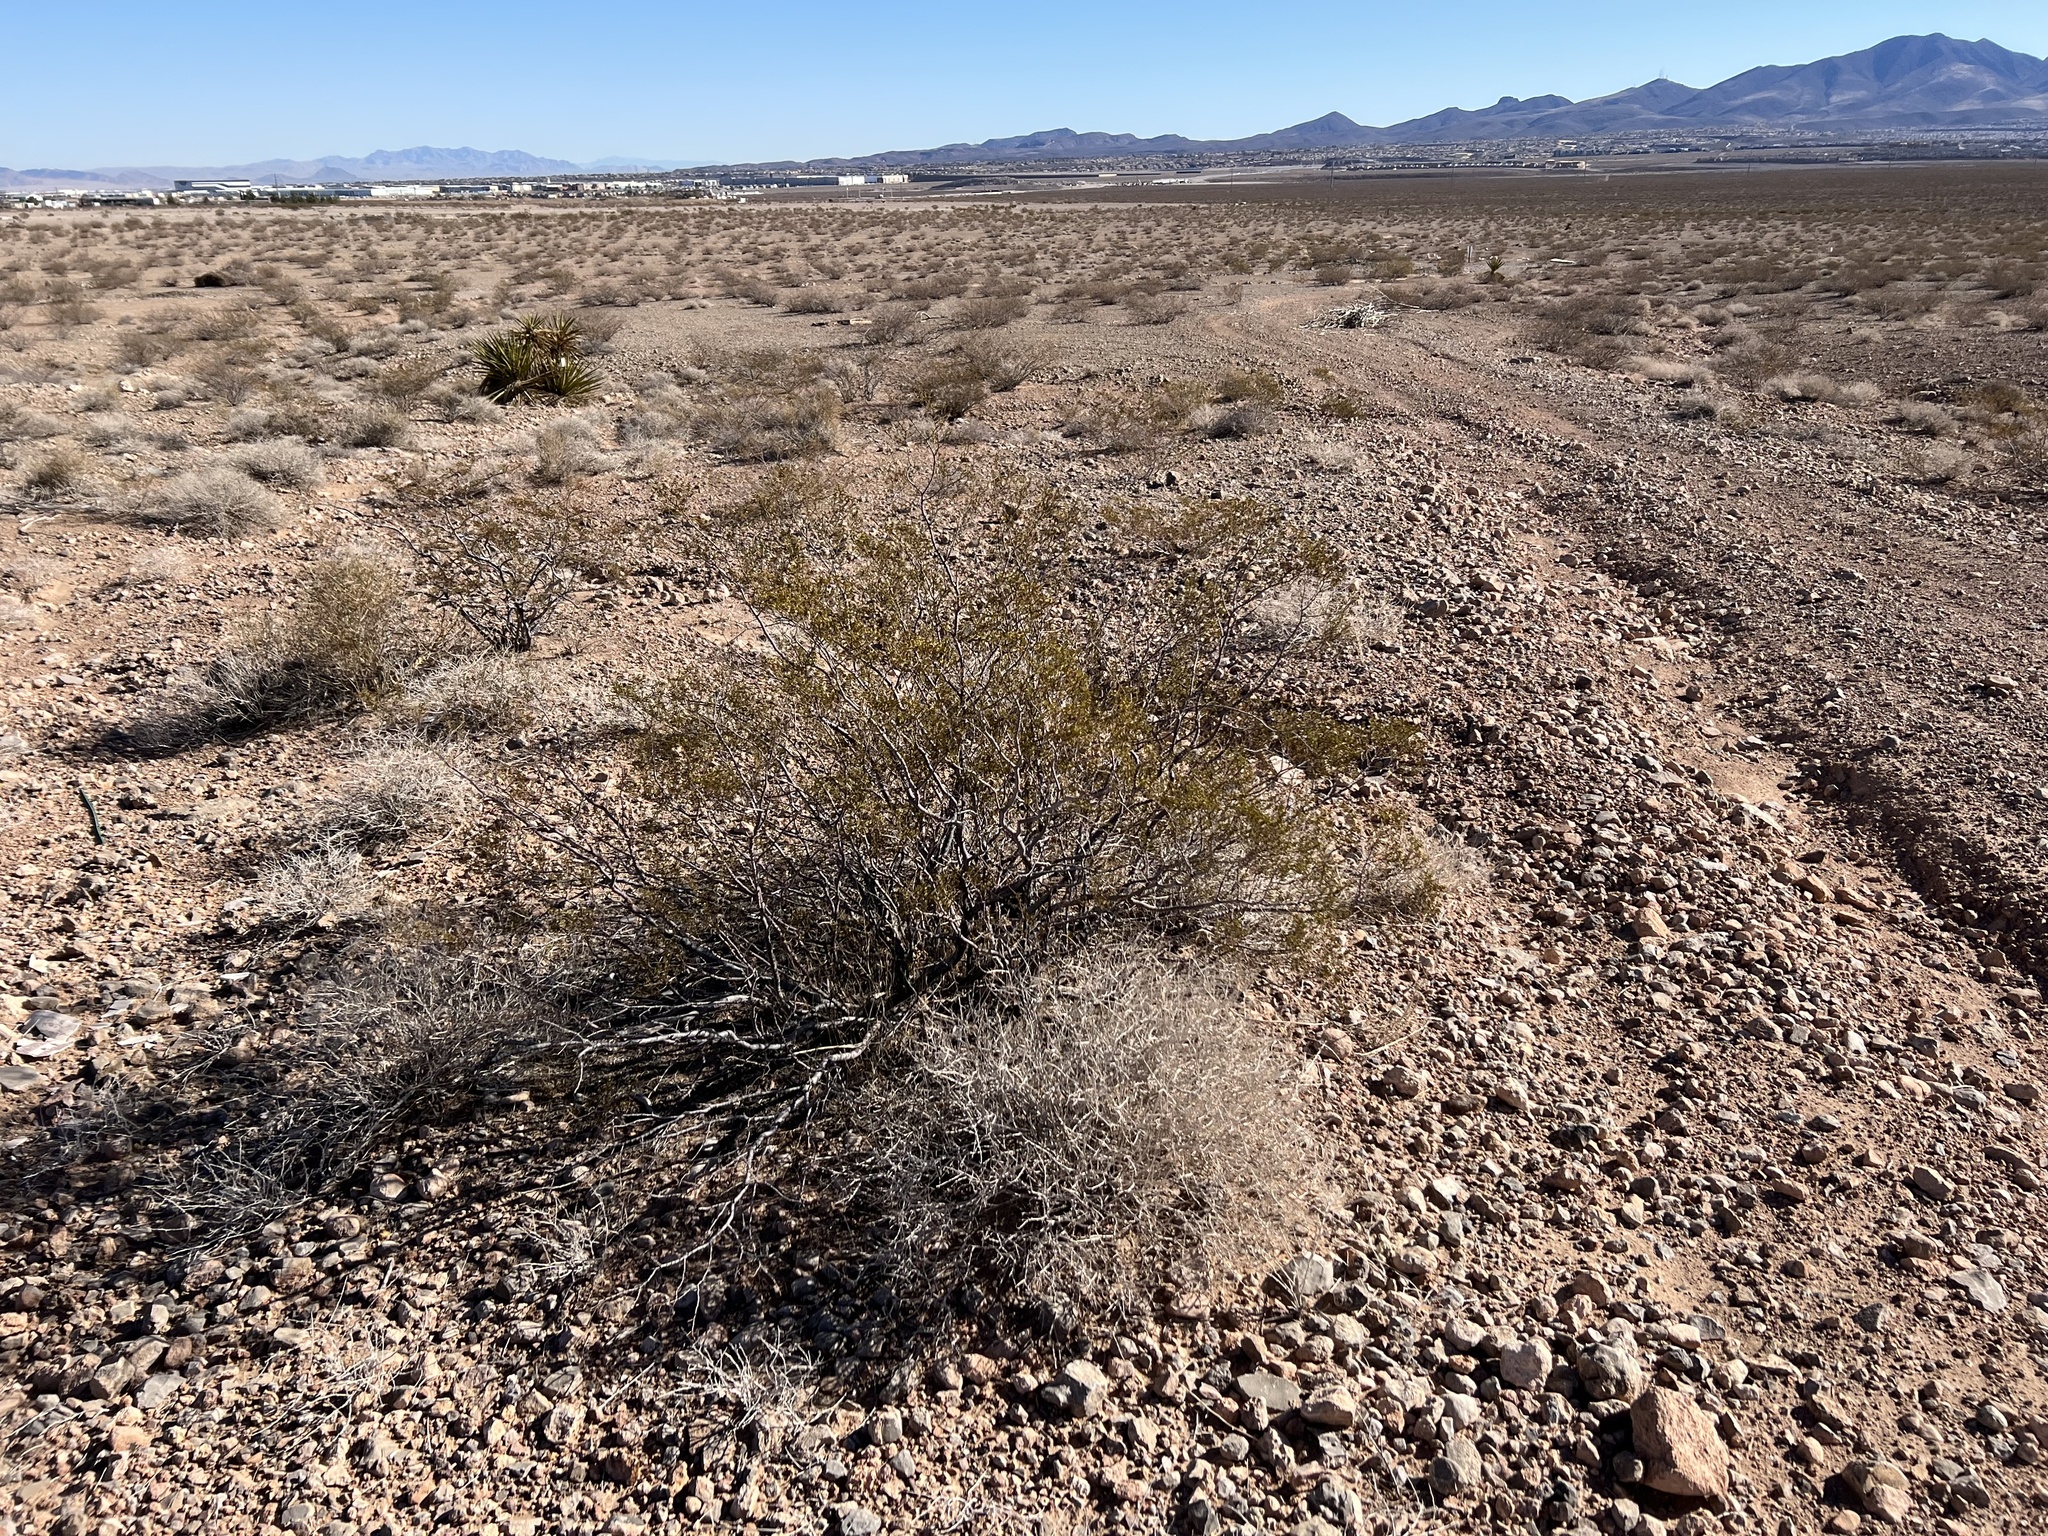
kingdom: Plantae
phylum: Tracheophyta
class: Magnoliopsida
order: Zygophyllales
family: Zygophyllaceae
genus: Larrea
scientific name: Larrea tridentata
